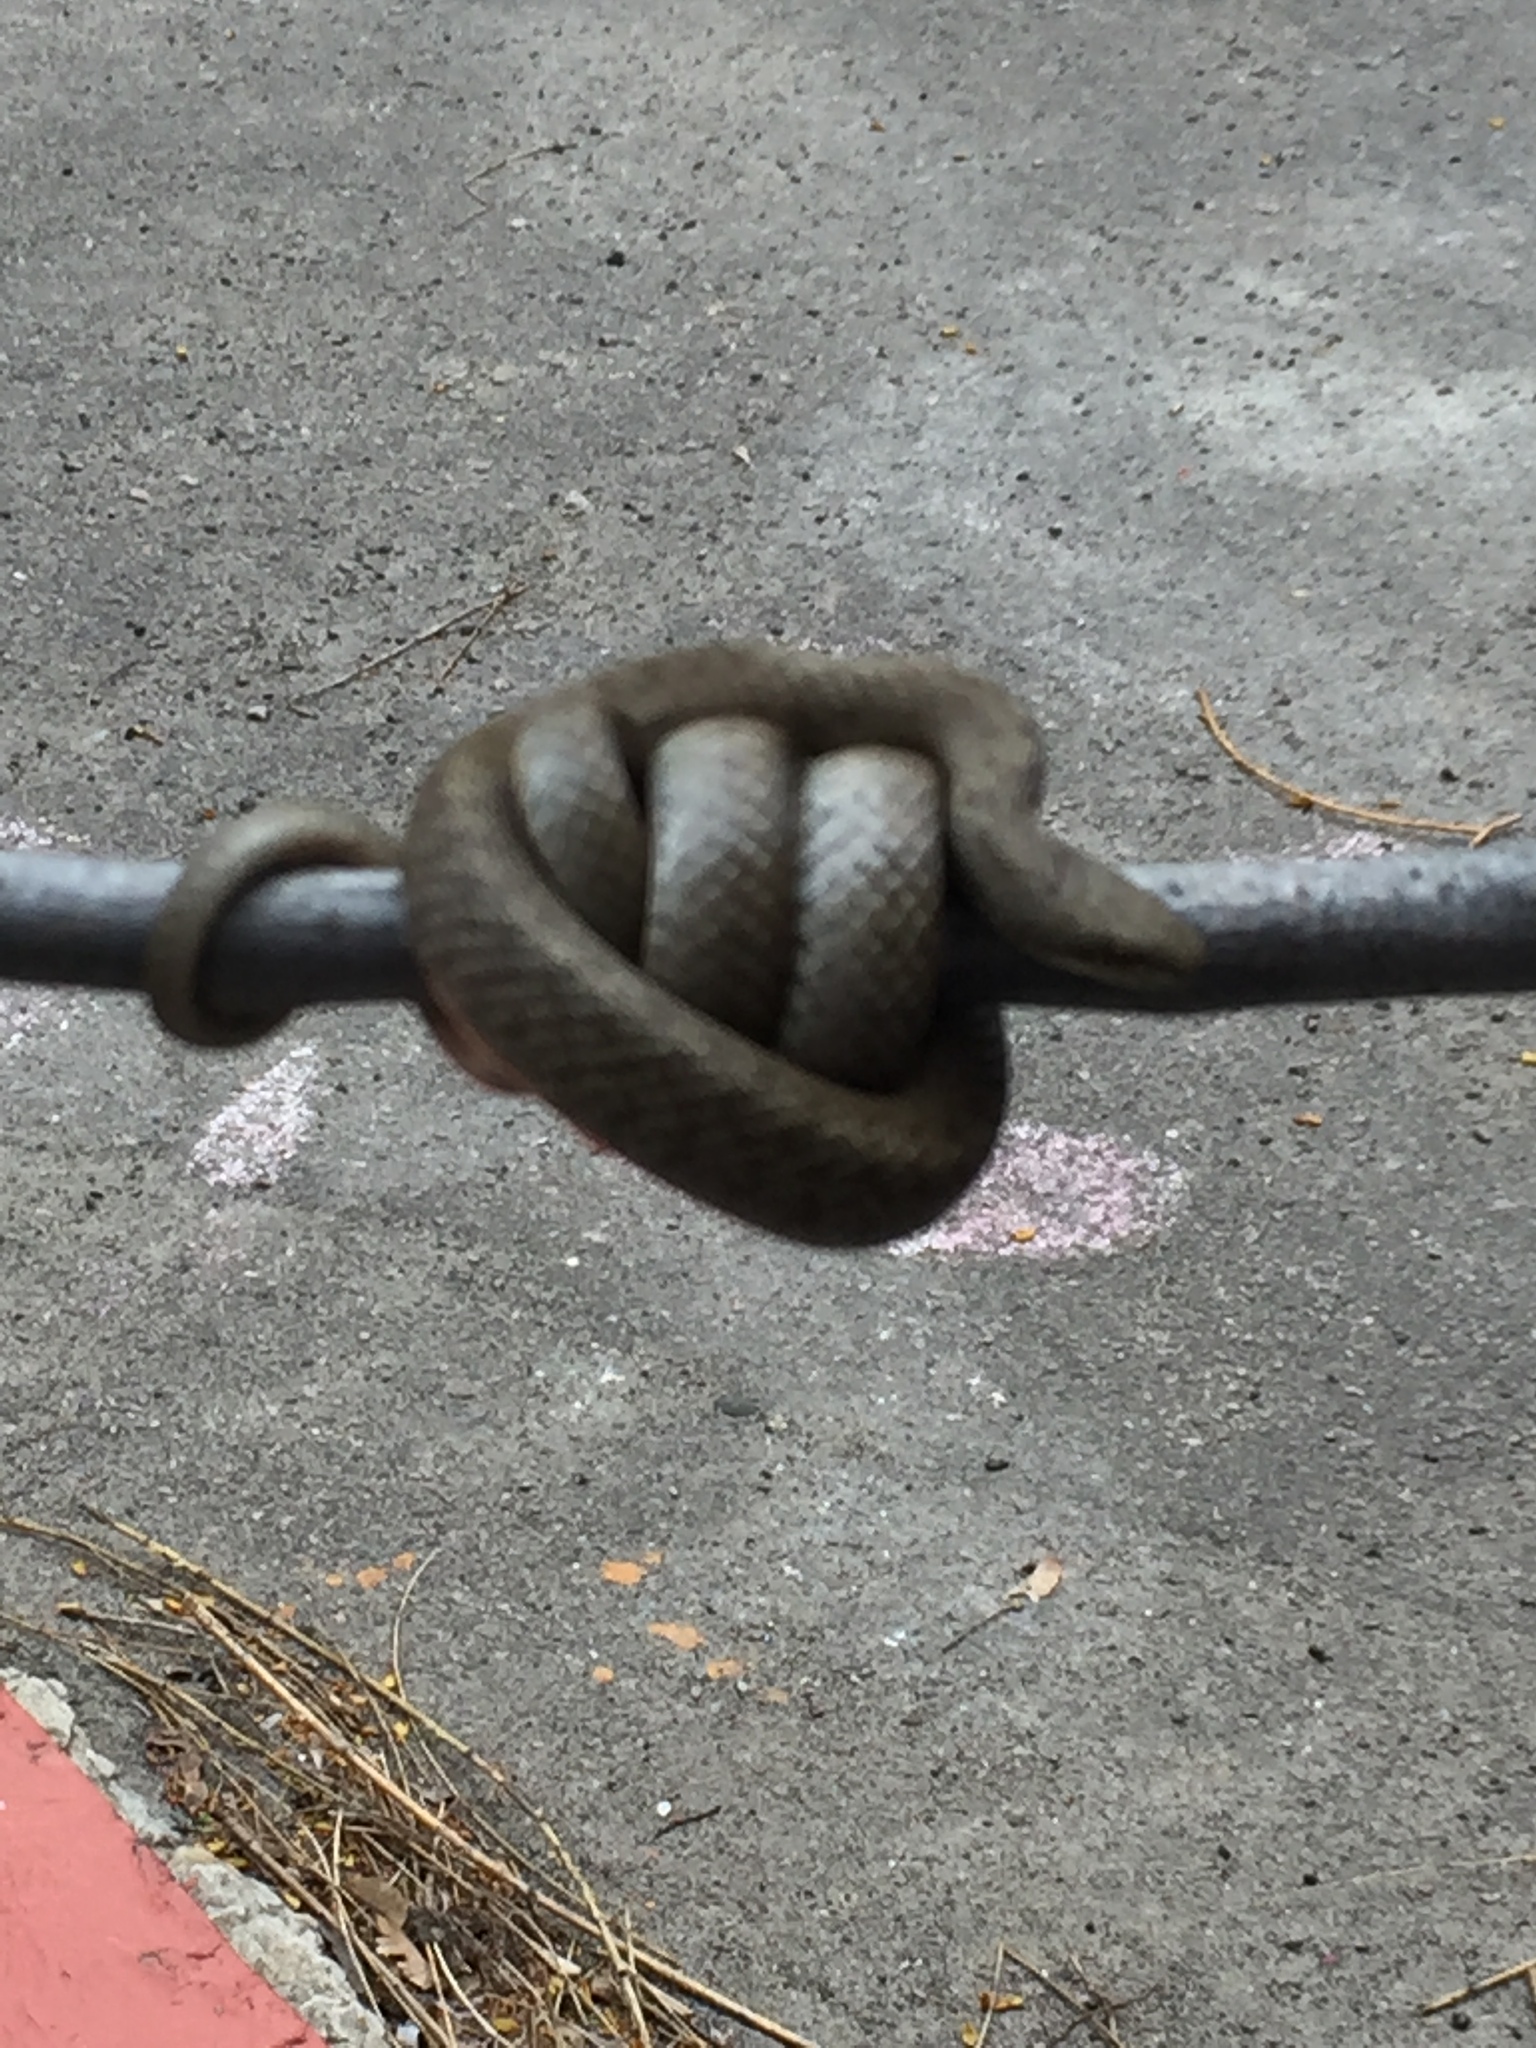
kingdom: Animalia
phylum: Chordata
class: Squamata
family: Colubridae
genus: Coronella
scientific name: Coronella austriaca
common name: Smooth snake
